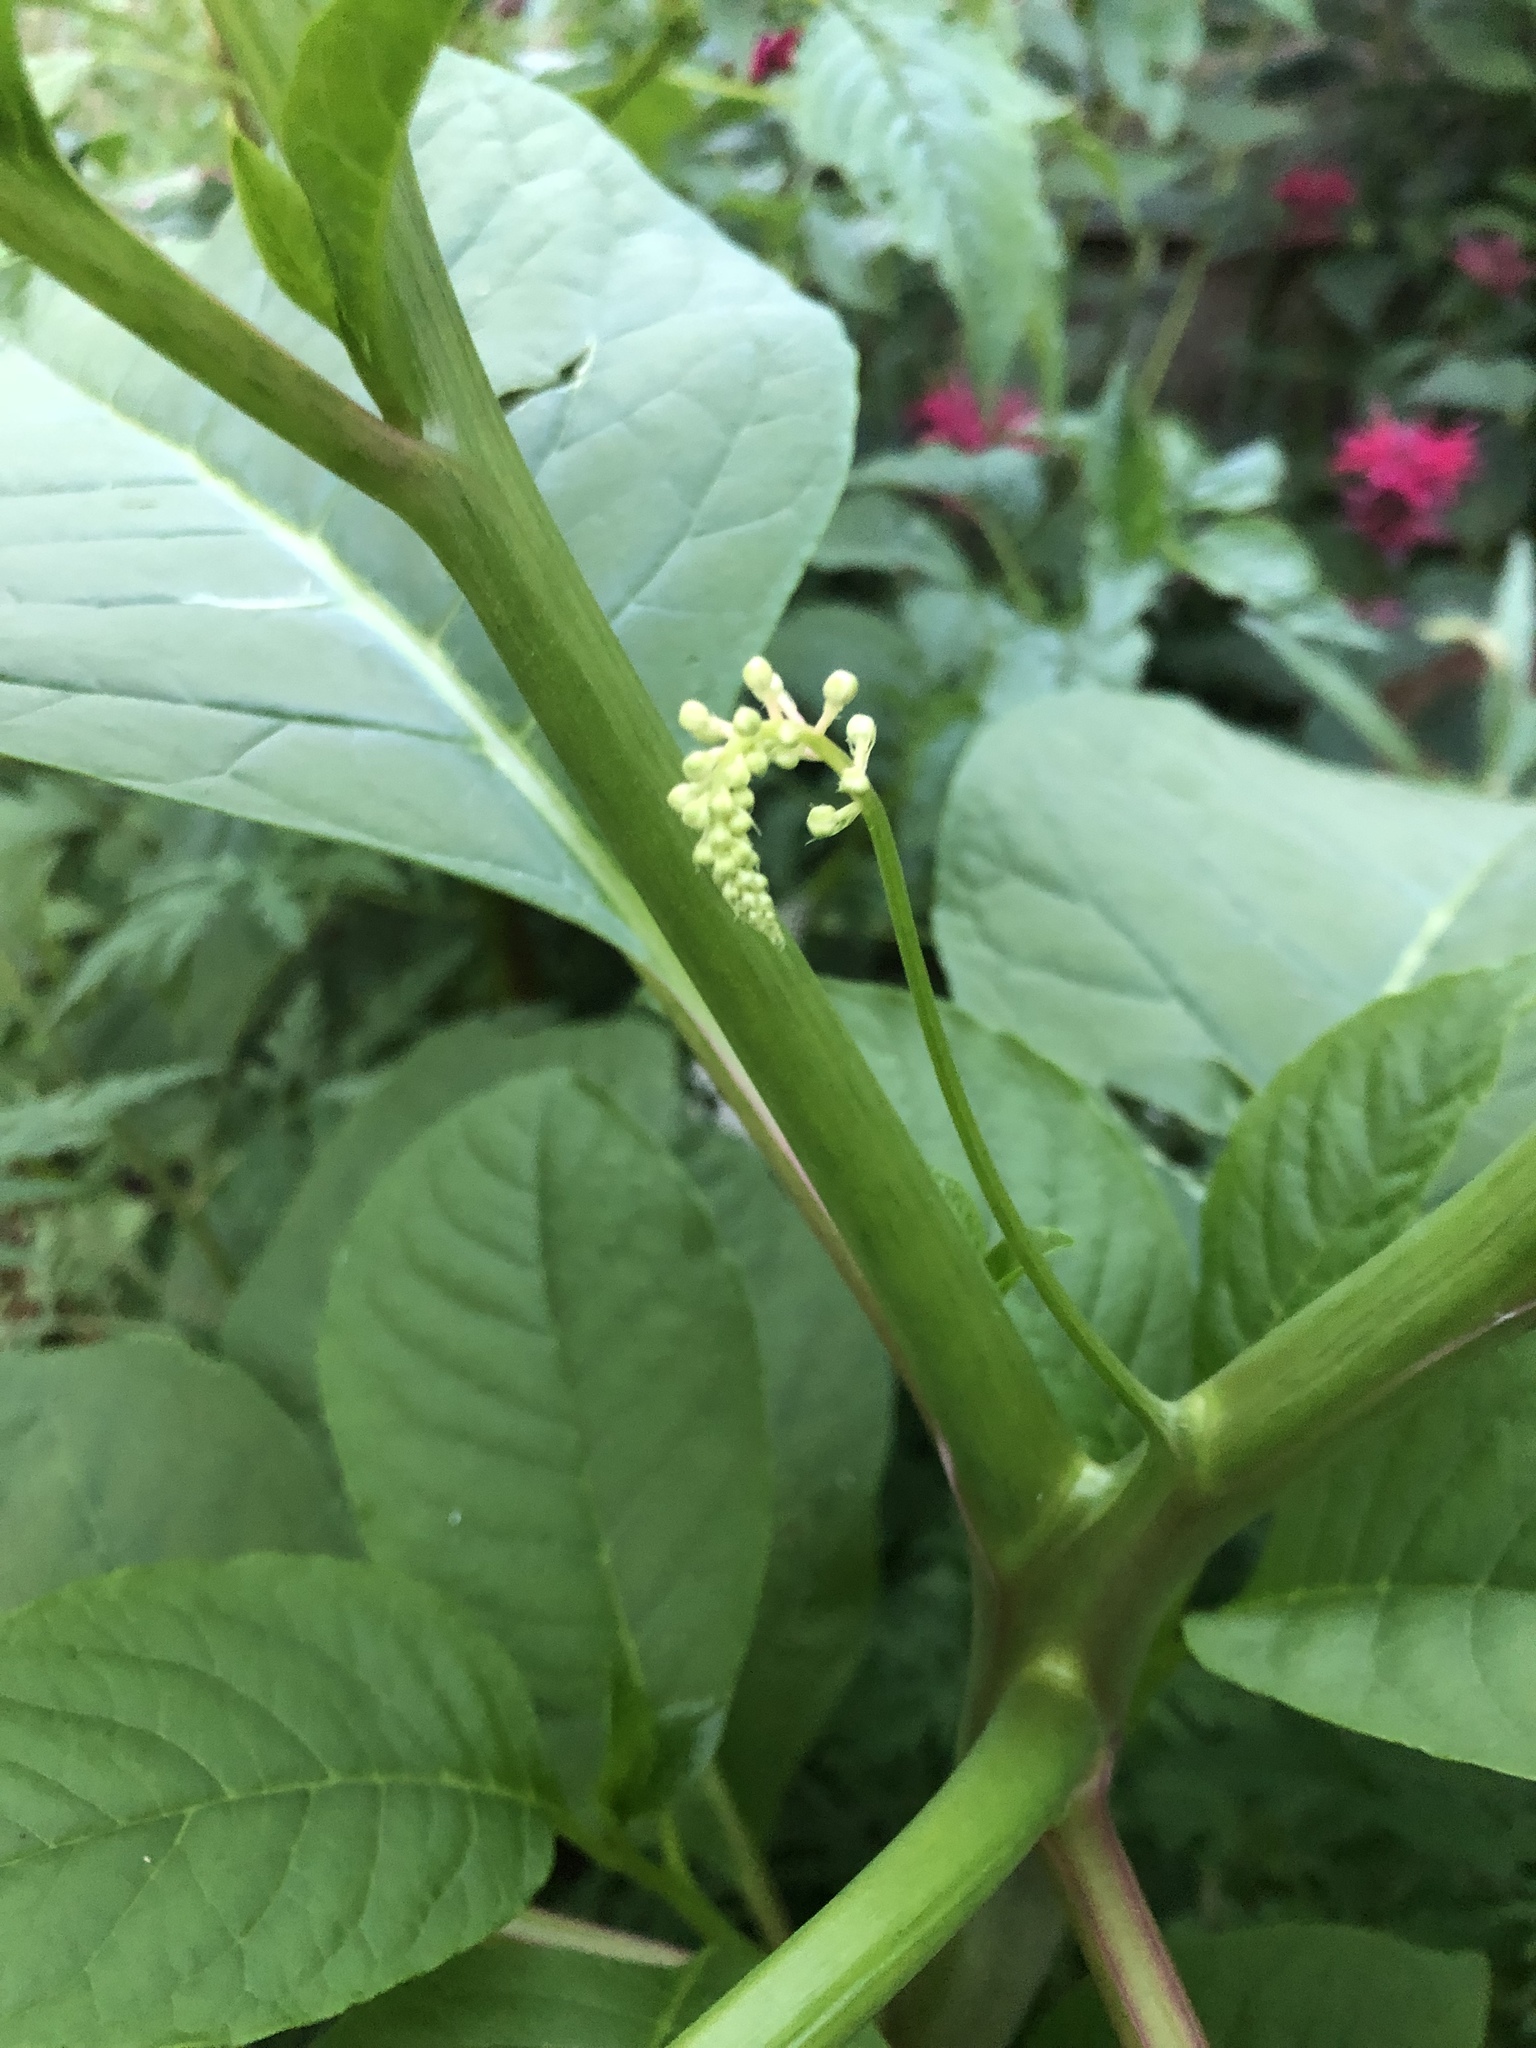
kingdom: Plantae
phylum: Tracheophyta
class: Magnoliopsida
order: Caryophyllales
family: Phytolaccaceae
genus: Phytolacca
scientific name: Phytolacca americana
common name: American pokeweed
